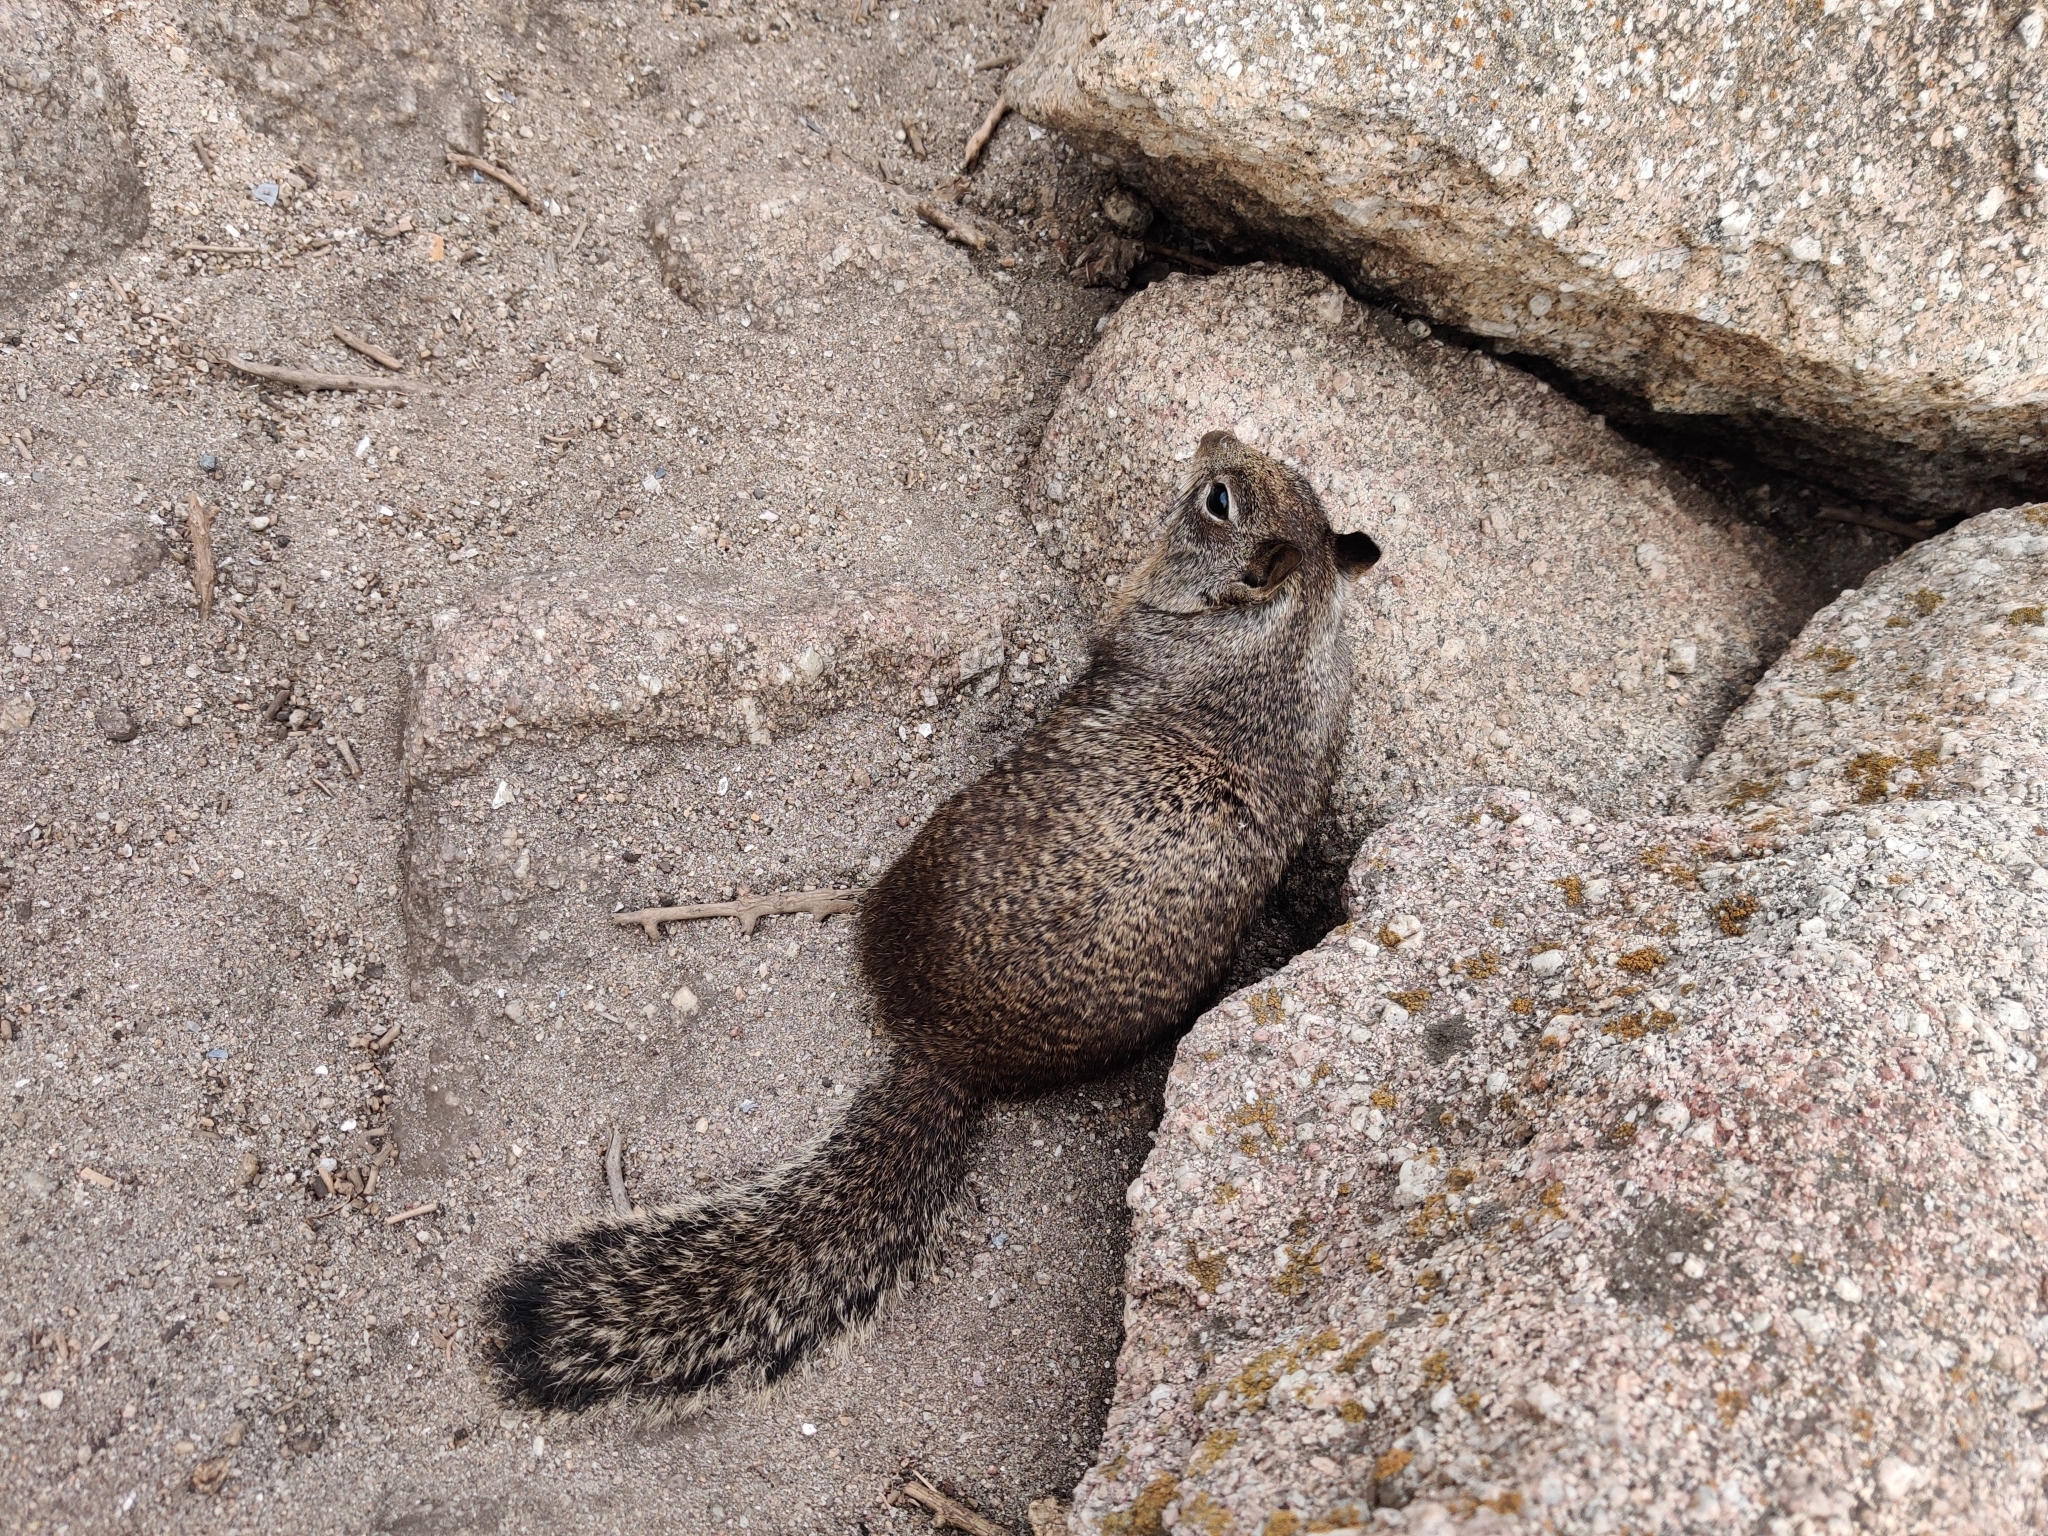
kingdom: Animalia
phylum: Chordata
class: Mammalia
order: Rodentia
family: Sciuridae
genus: Otospermophilus
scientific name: Otospermophilus beecheyi
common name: California ground squirrel
